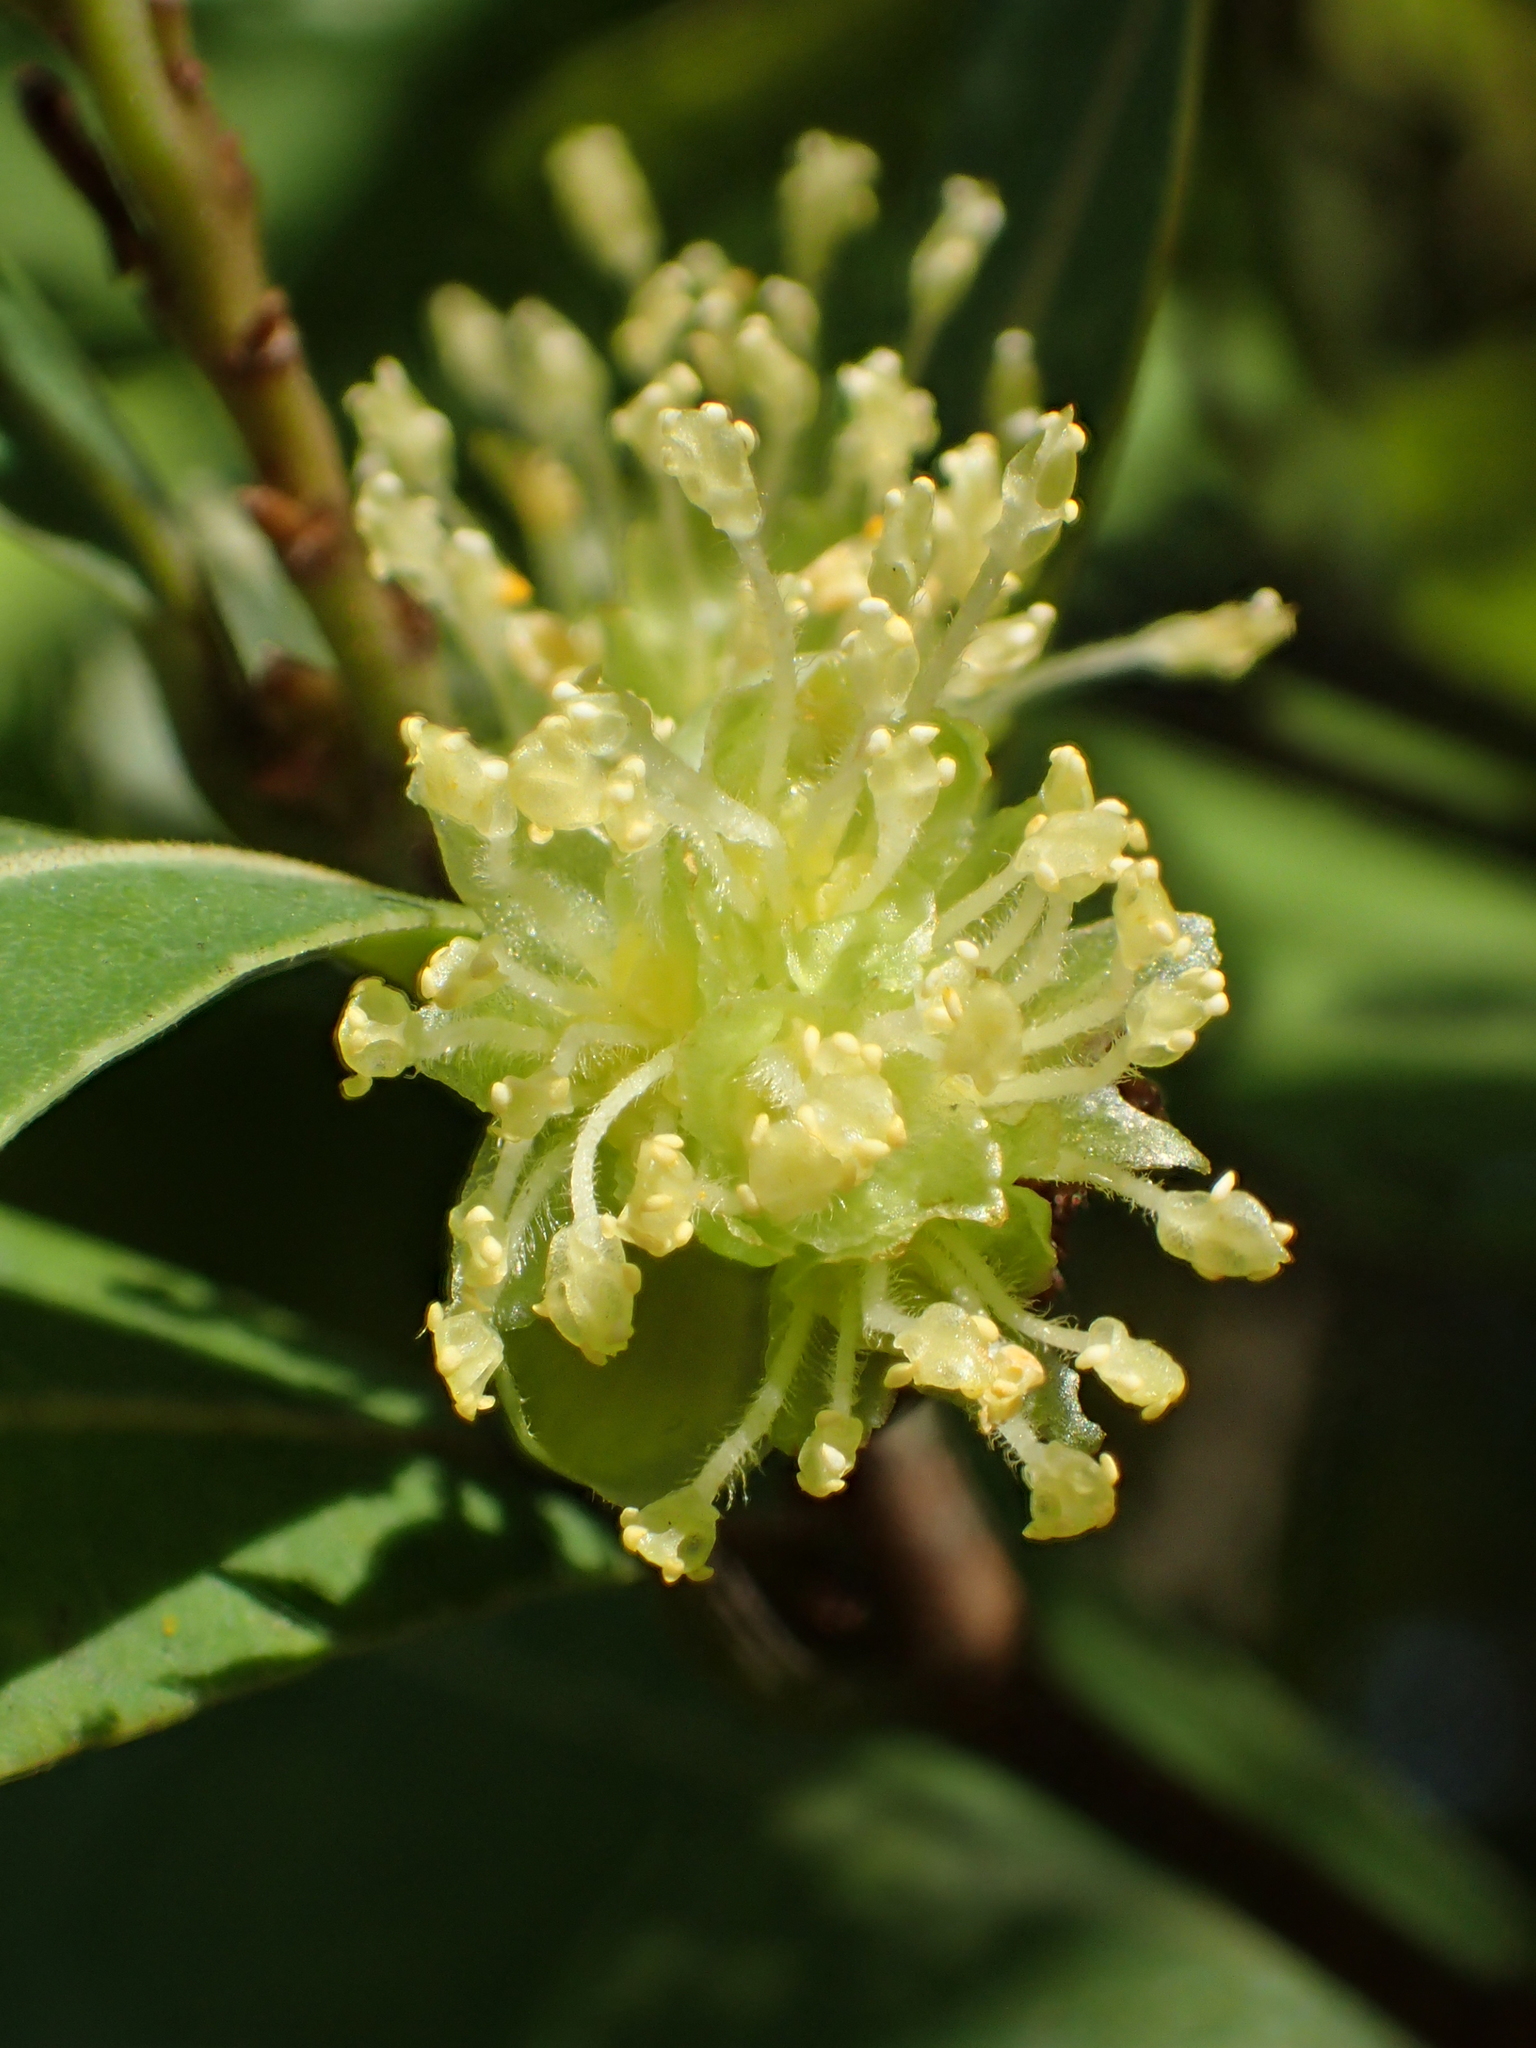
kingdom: Plantae
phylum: Tracheophyta
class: Magnoliopsida
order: Laurales
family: Lauraceae
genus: Litsea
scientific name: Litsea hypophaea
